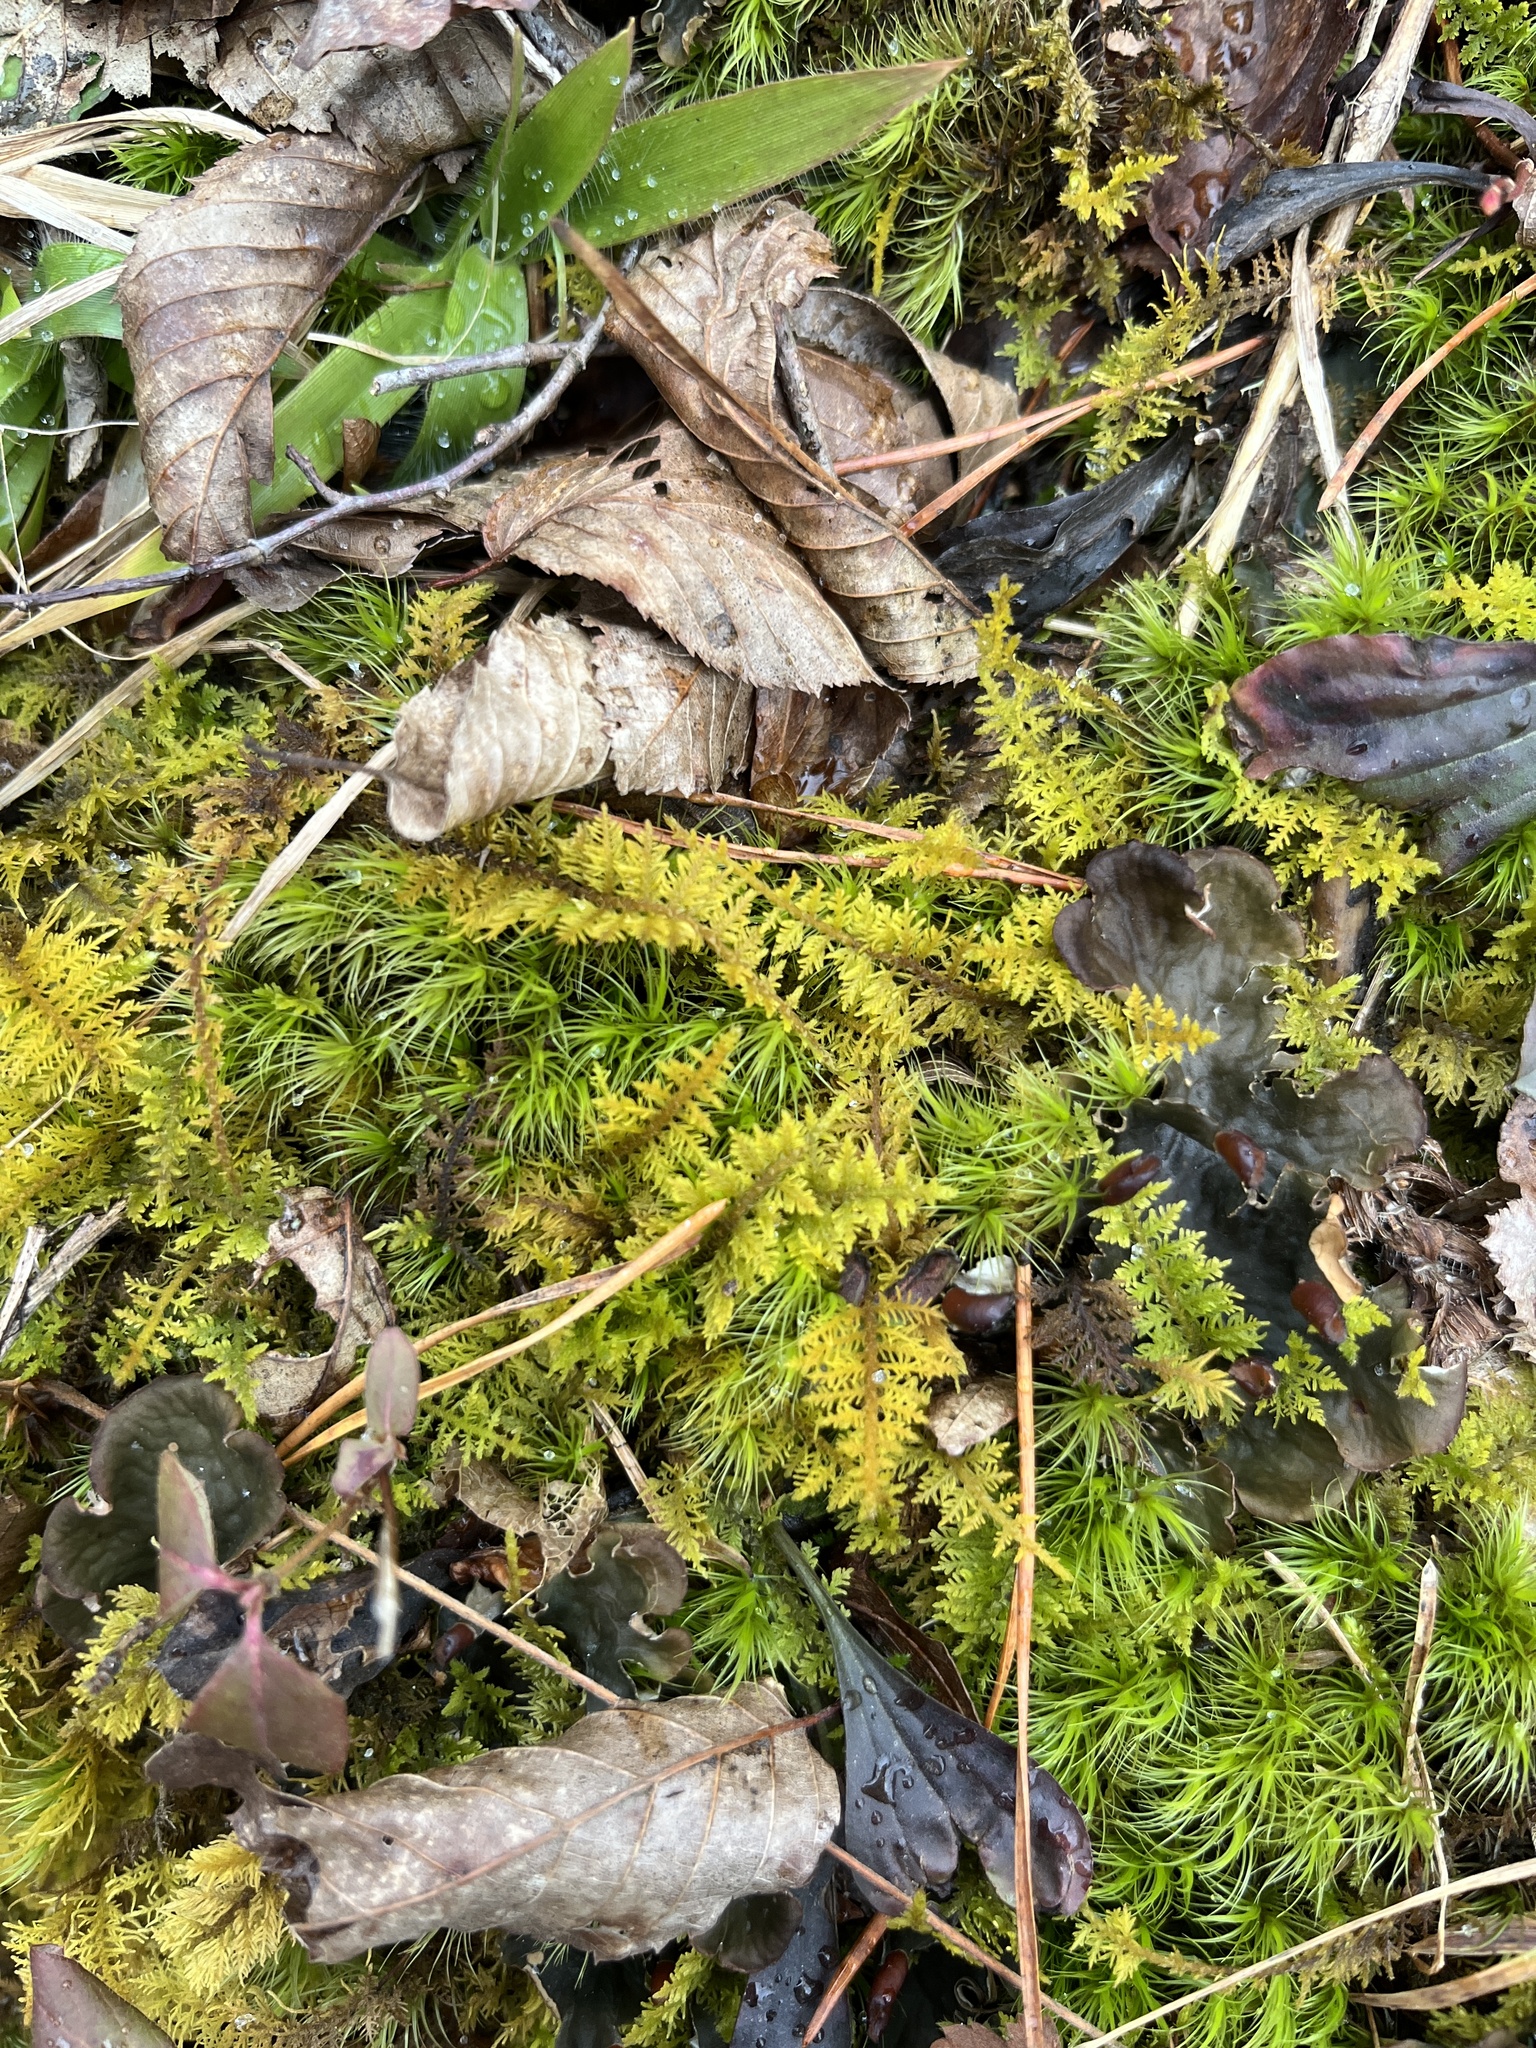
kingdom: Plantae
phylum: Bryophyta
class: Bryopsida
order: Hypnales
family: Thuidiaceae
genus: Thuidium
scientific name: Thuidium delicatulum
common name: Delicate fern moss
